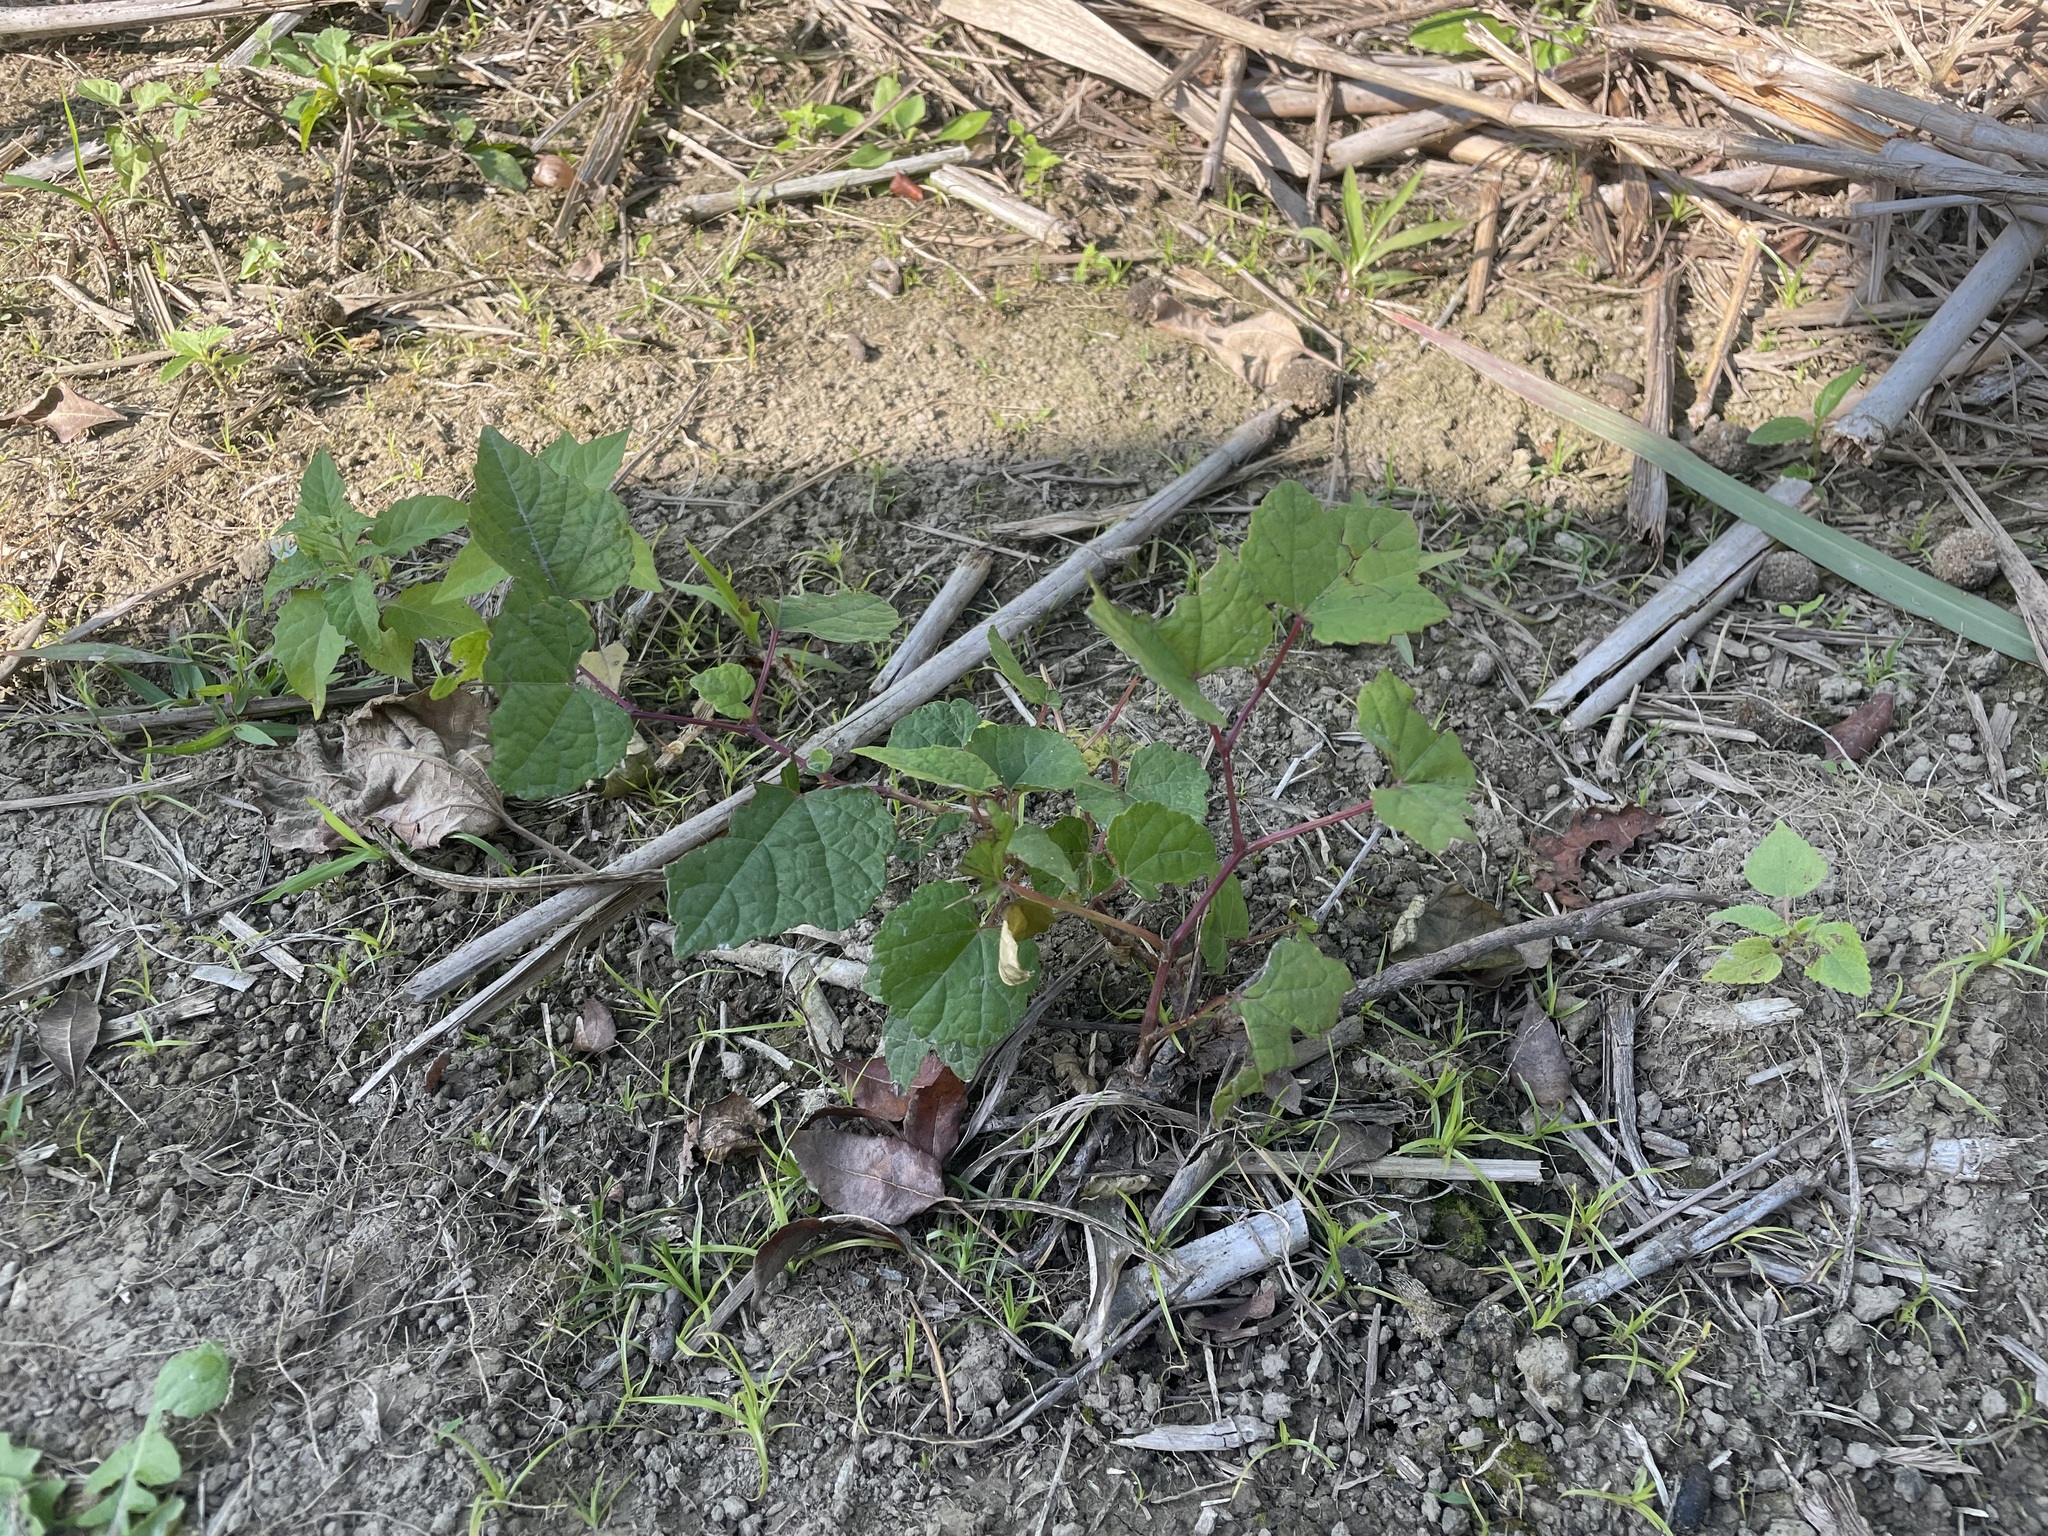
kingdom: Plantae
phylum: Tracheophyta
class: Magnoliopsida
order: Vitales
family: Vitaceae
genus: Ampelopsis
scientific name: Ampelopsis glandulosa
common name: Amur peppervine
